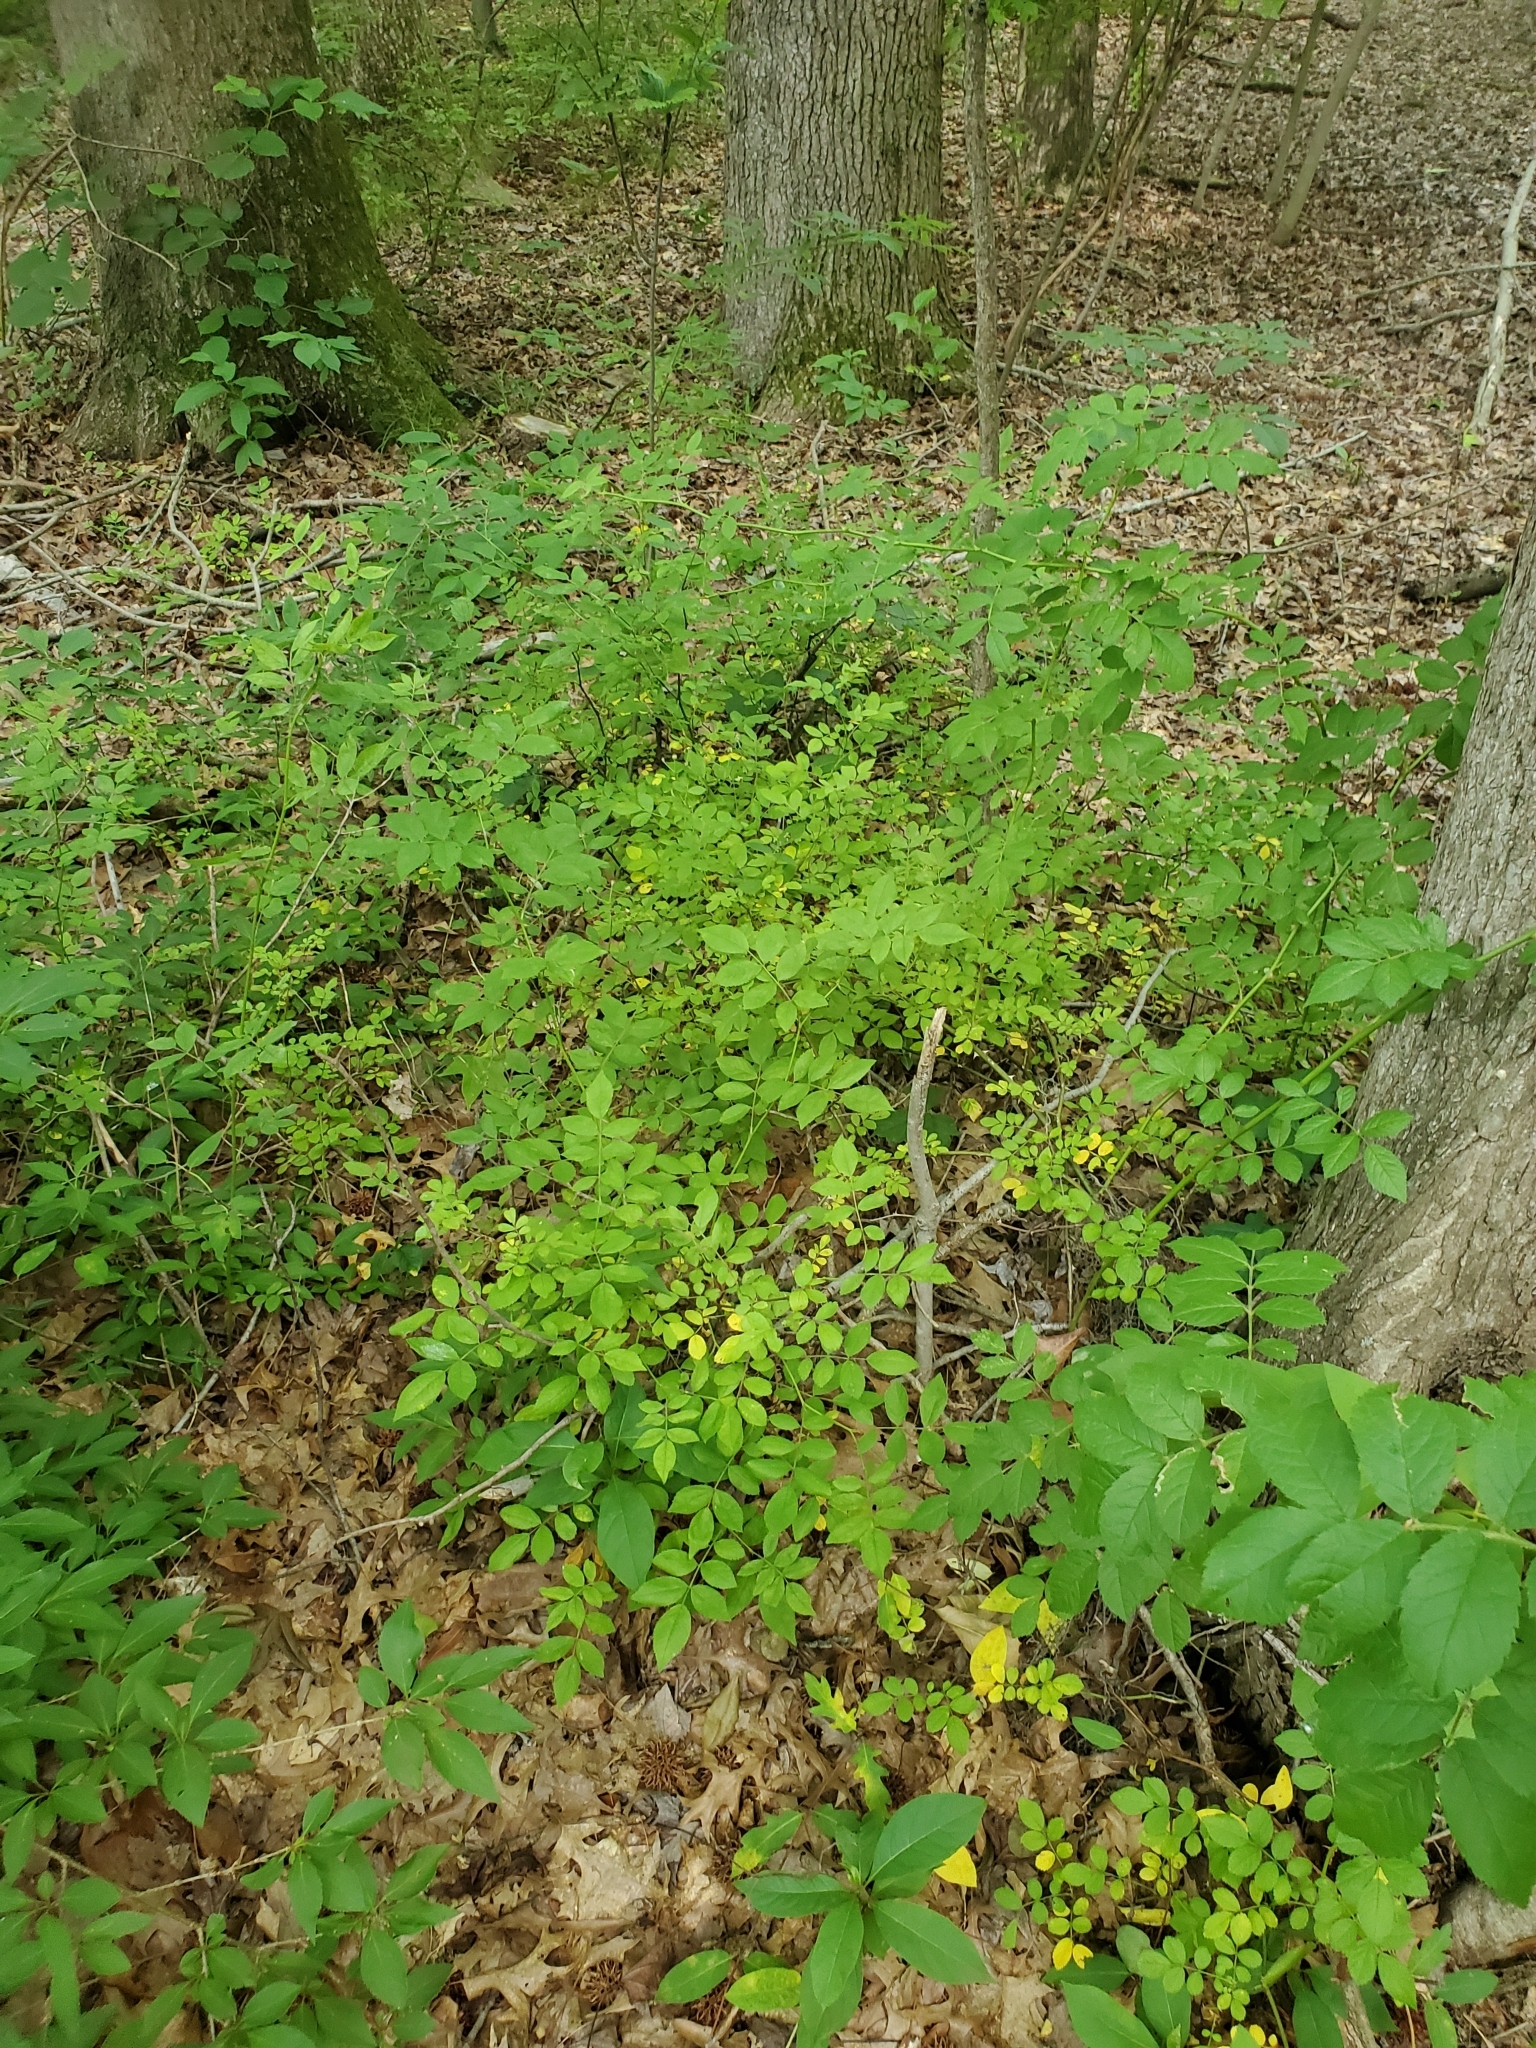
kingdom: Plantae
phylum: Tracheophyta
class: Magnoliopsida
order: Rosales
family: Rosaceae
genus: Rosa
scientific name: Rosa multiflora
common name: Multiflora rose
